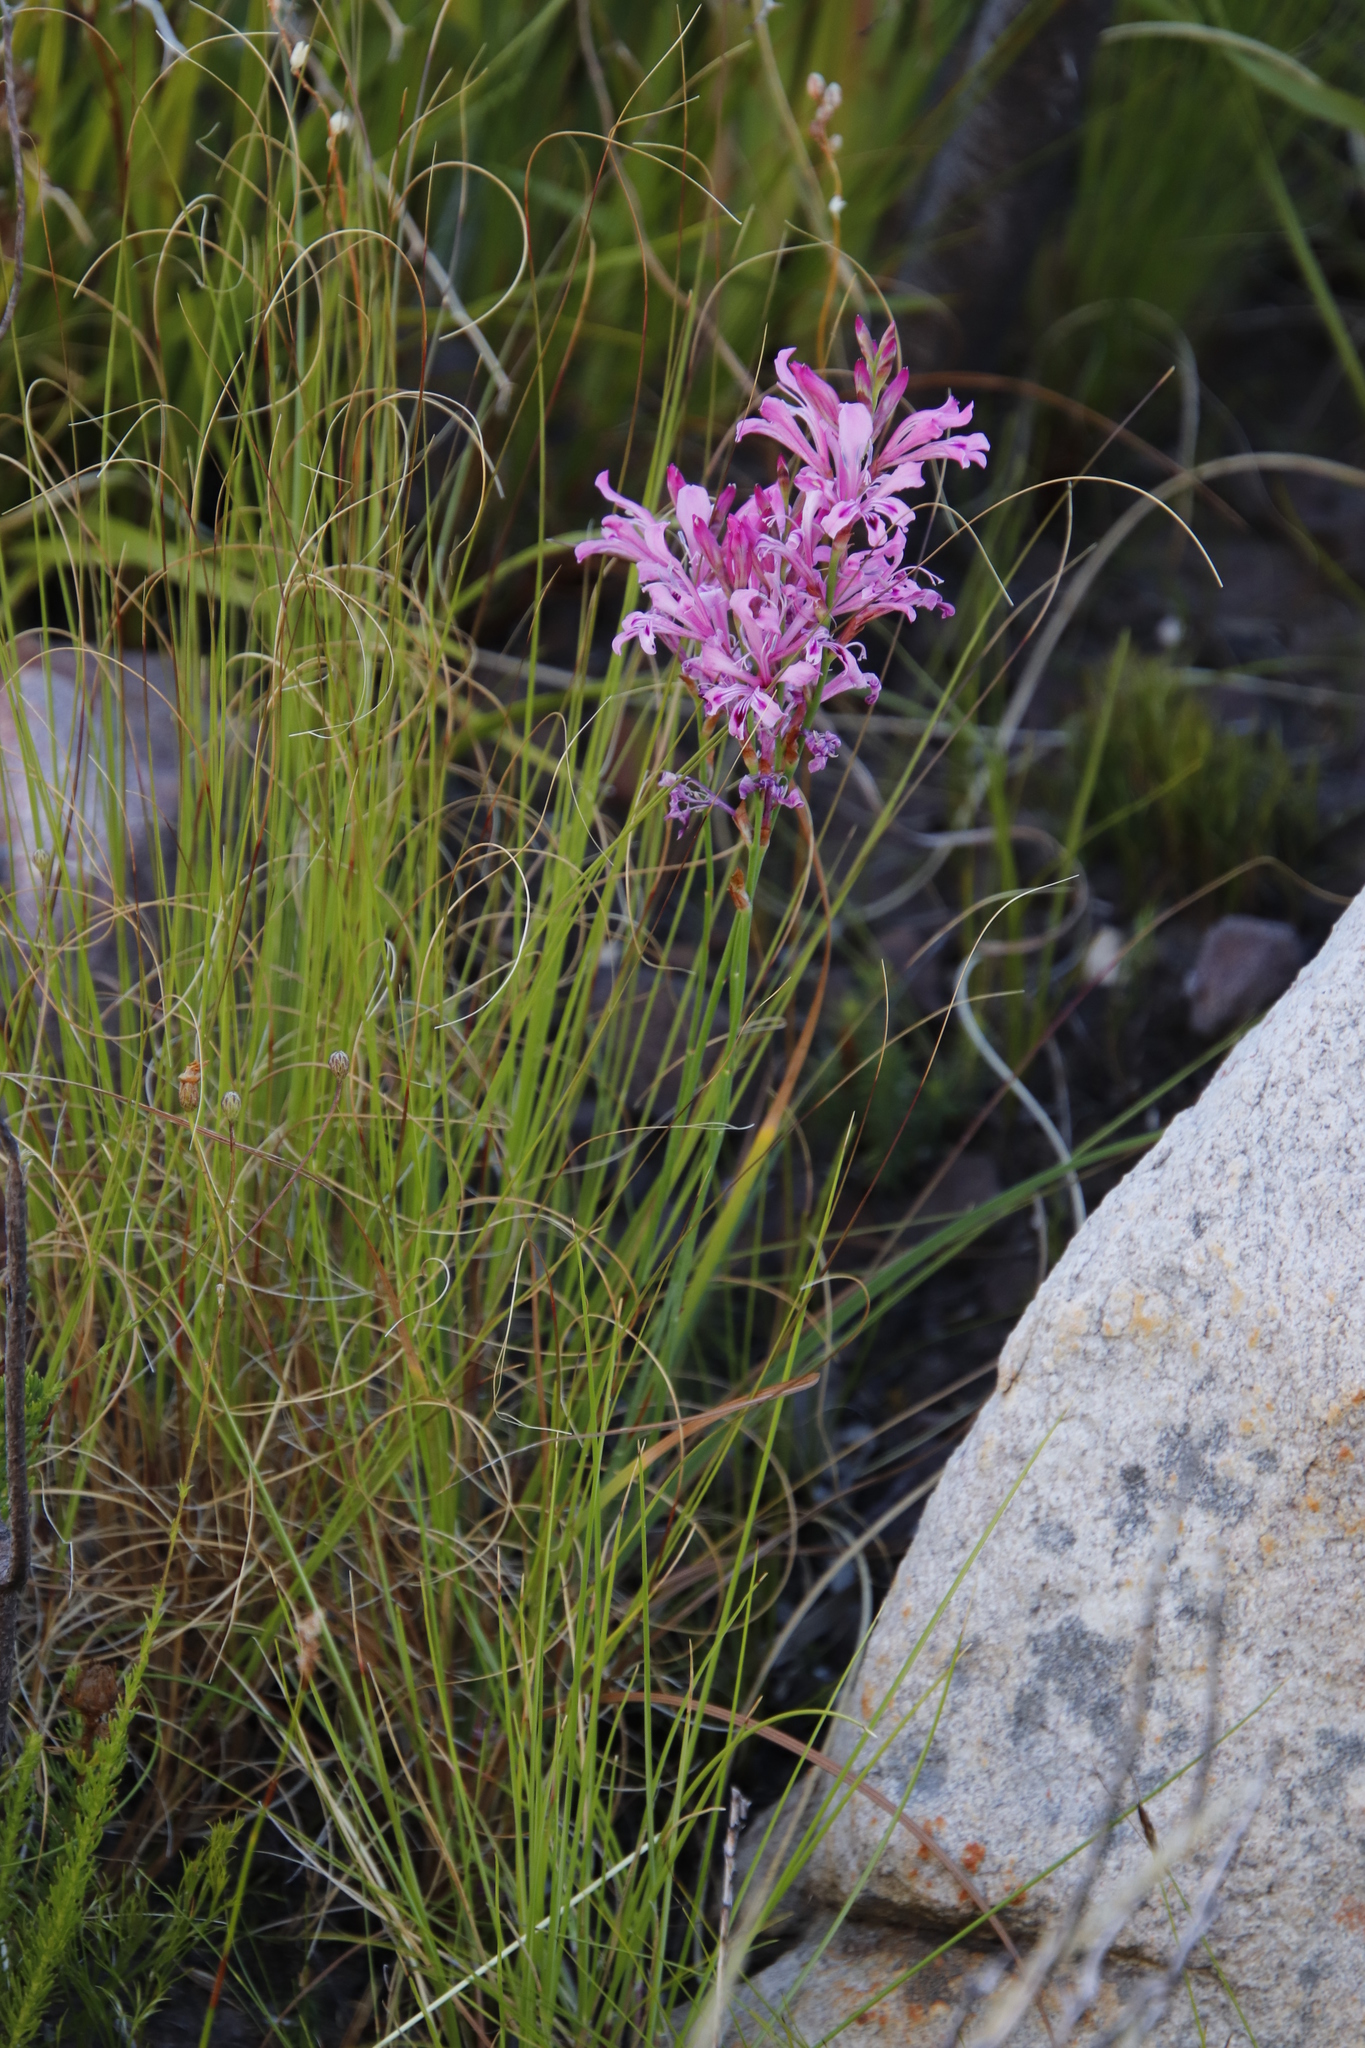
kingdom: Plantae
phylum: Tracheophyta
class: Liliopsida
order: Asparagales
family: Iridaceae
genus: Tritoniopsis
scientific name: Tritoniopsis lata
